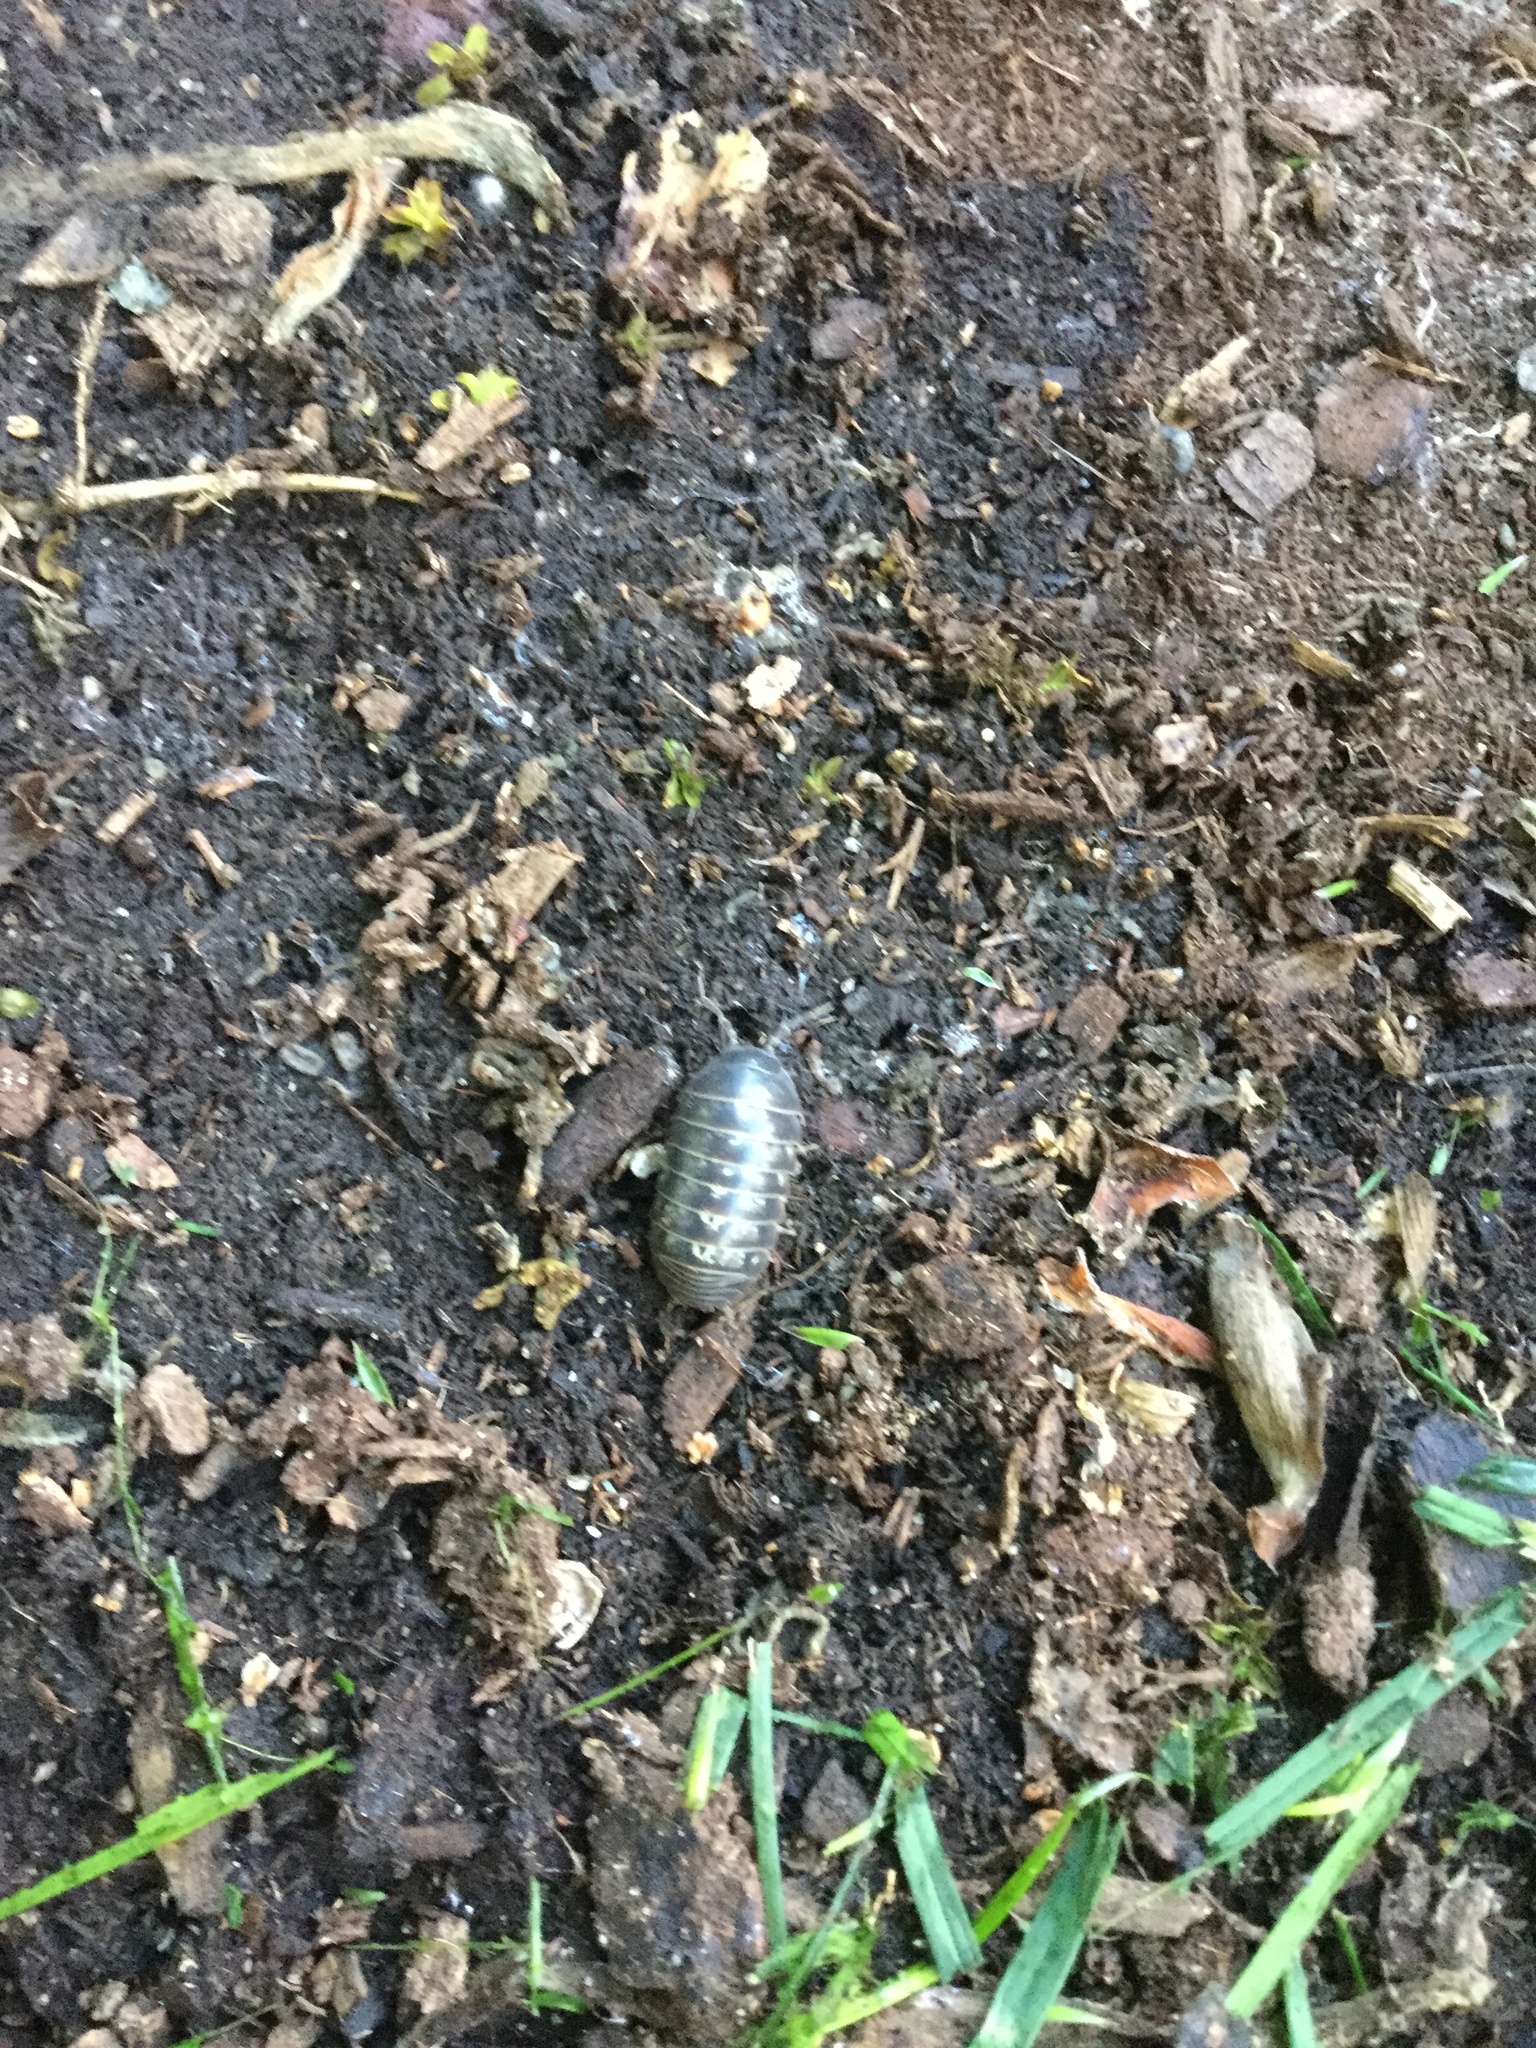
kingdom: Animalia
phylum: Arthropoda
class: Malacostraca
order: Isopoda
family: Armadillidiidae
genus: Armadillidium
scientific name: Armadillidium vulgare
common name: Common pill woodlouse
